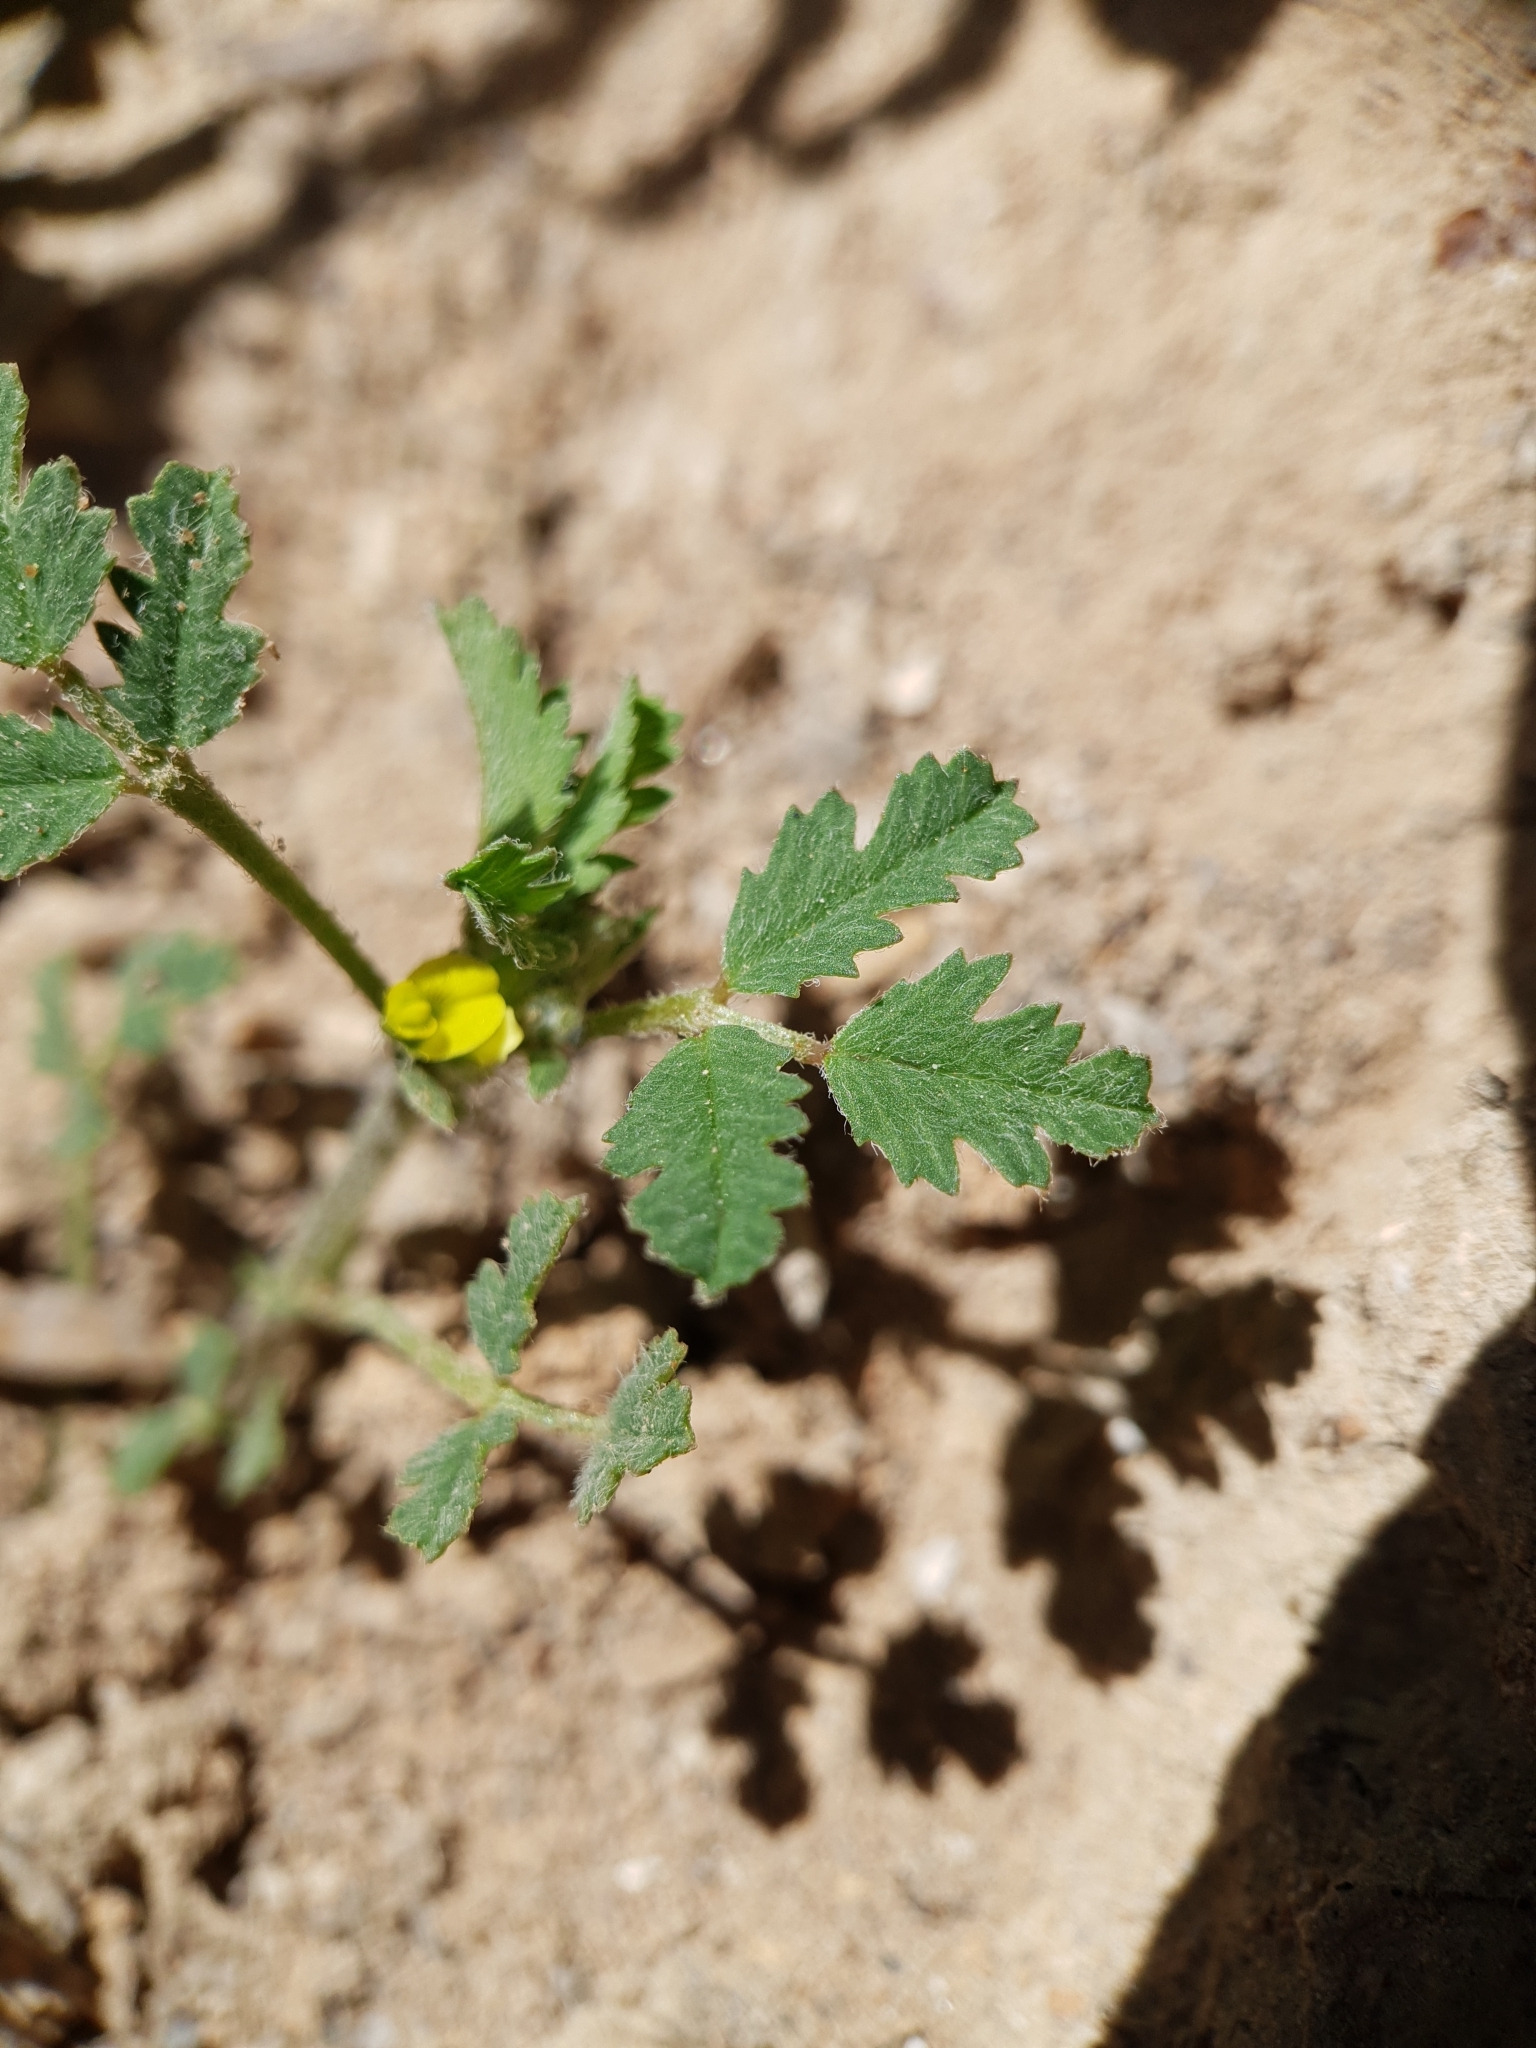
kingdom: Plantae
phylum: Tracheophyta
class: Magnoliopsida
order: Fabales
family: Fabaceae
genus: Medicago
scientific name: Medicago laciniata
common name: Tattered medick
